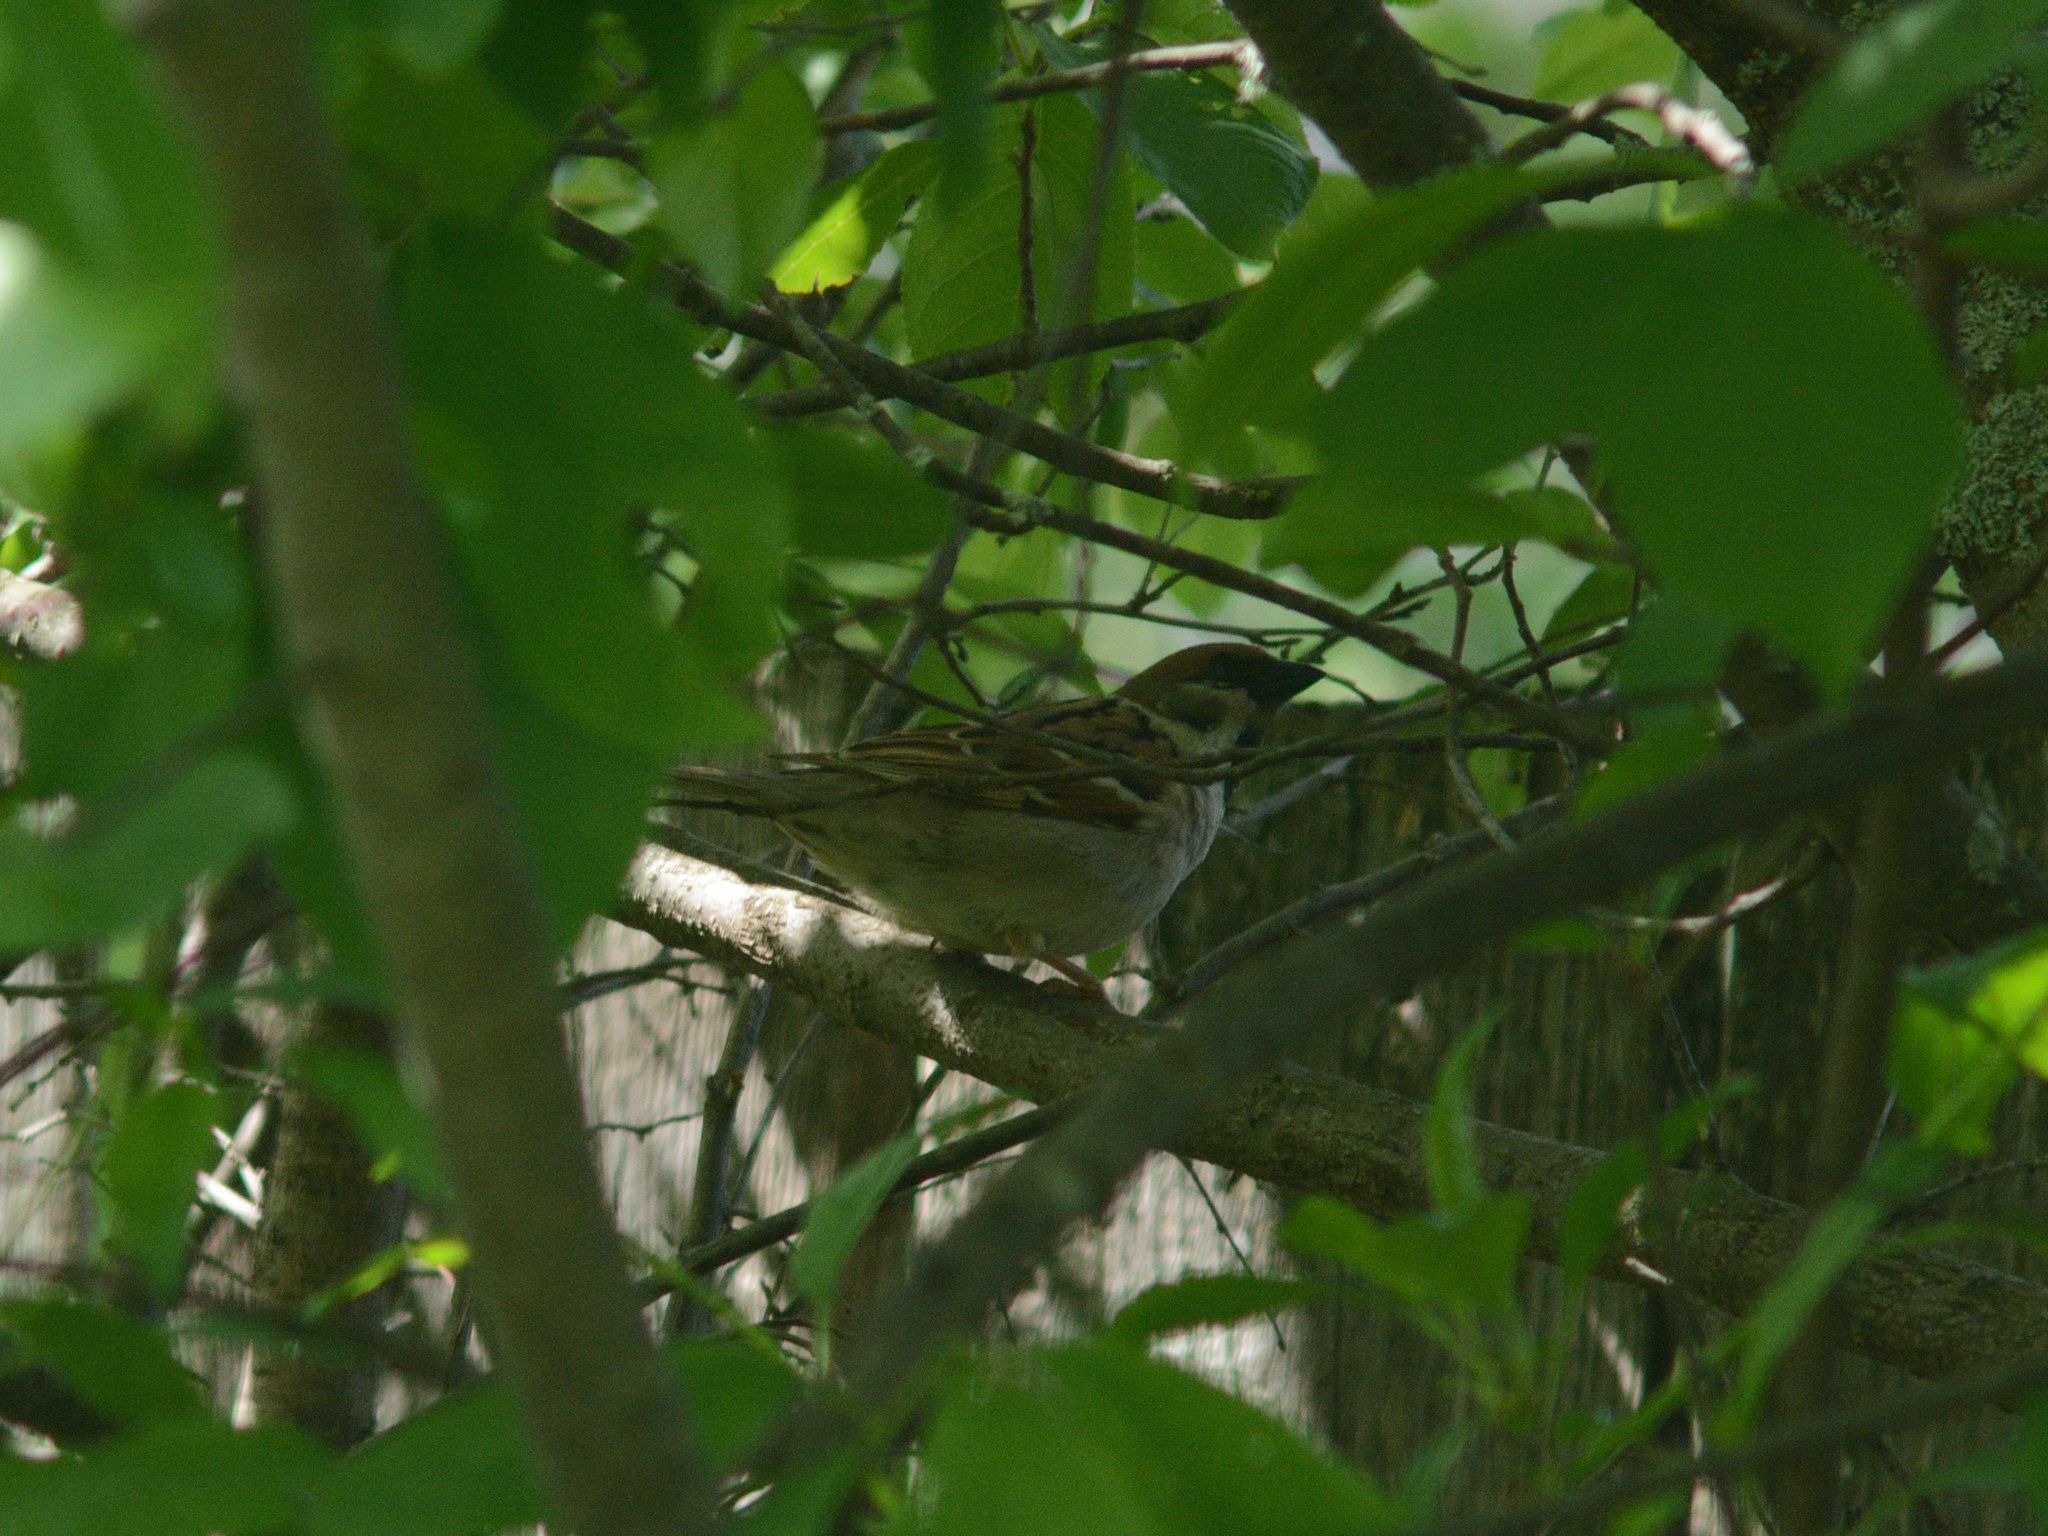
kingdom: Animalia
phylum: Chordata
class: Aves
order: Passeriformes
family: Passeridae
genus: Passer
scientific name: Passer montanus
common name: Eurasian tree sparrow
